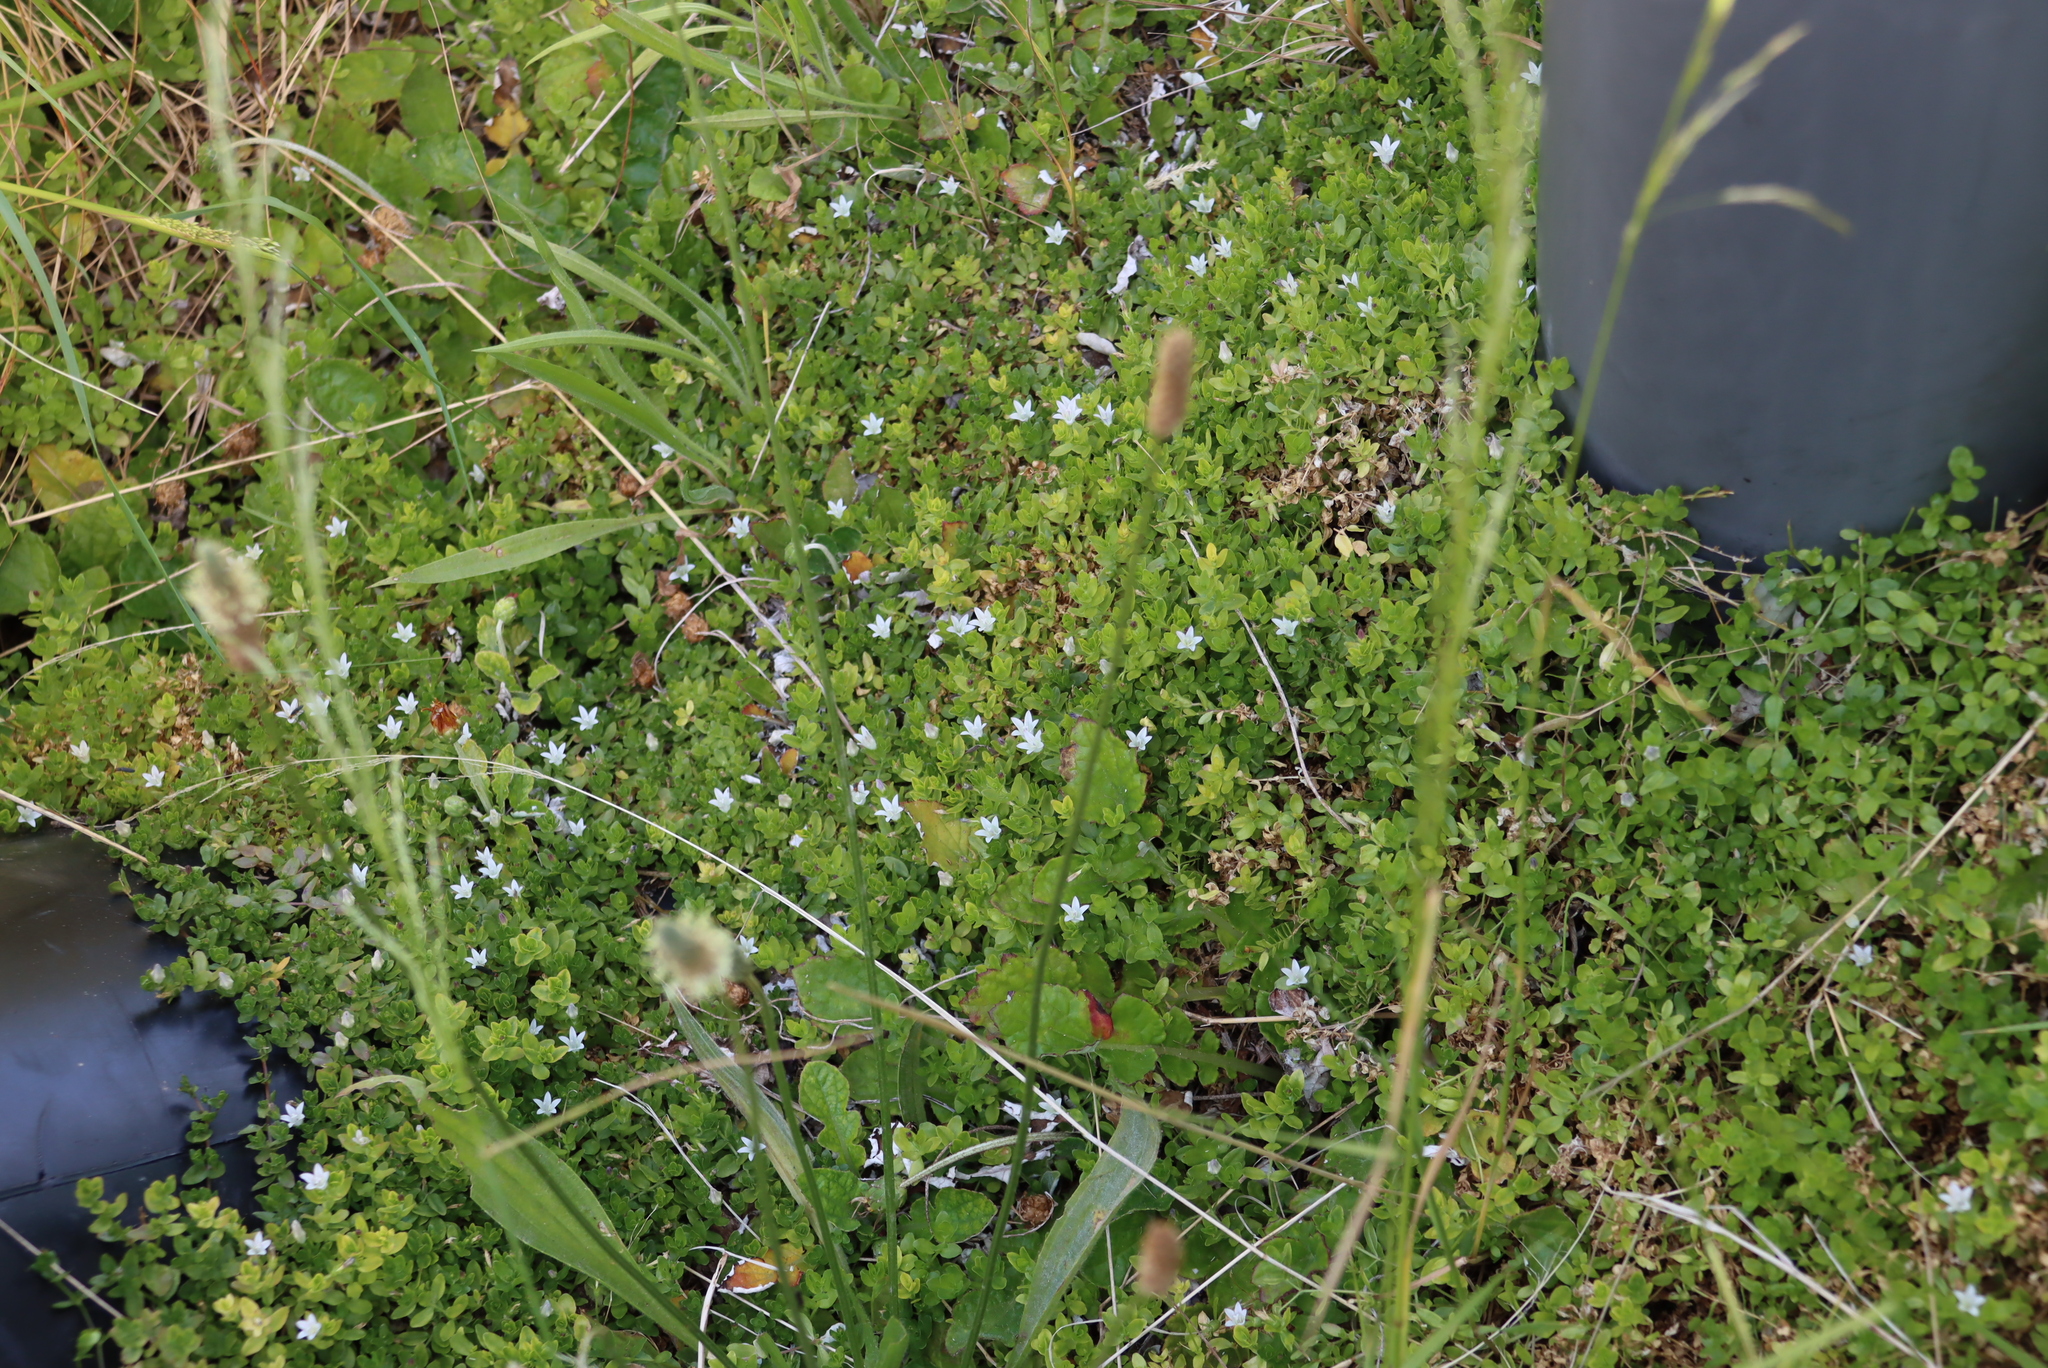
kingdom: Plantae
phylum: Tracheophyta
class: Magnoliopsida
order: Asterales
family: Campanulaceae
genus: Wahlenbergia
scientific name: Wahlenbergia procumbens
